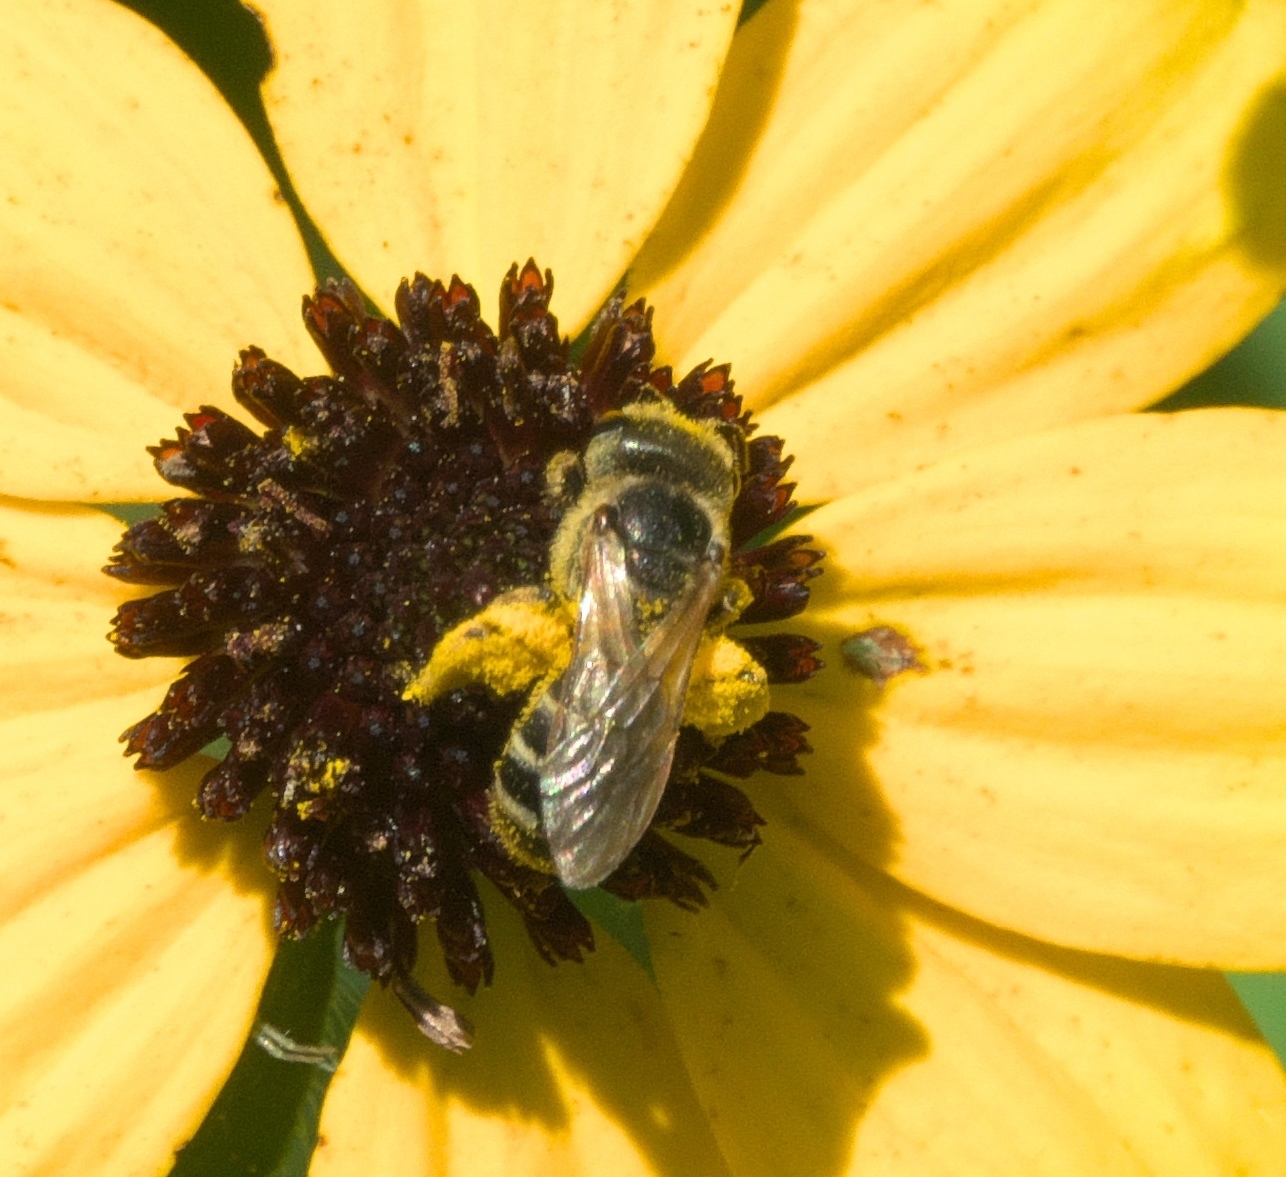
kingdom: Animalia
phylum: Arthropoda
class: Insecta
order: Hymenoptera
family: Halictidae
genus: Halictus
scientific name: Halictus ligatus
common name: Ligated furrow bee
